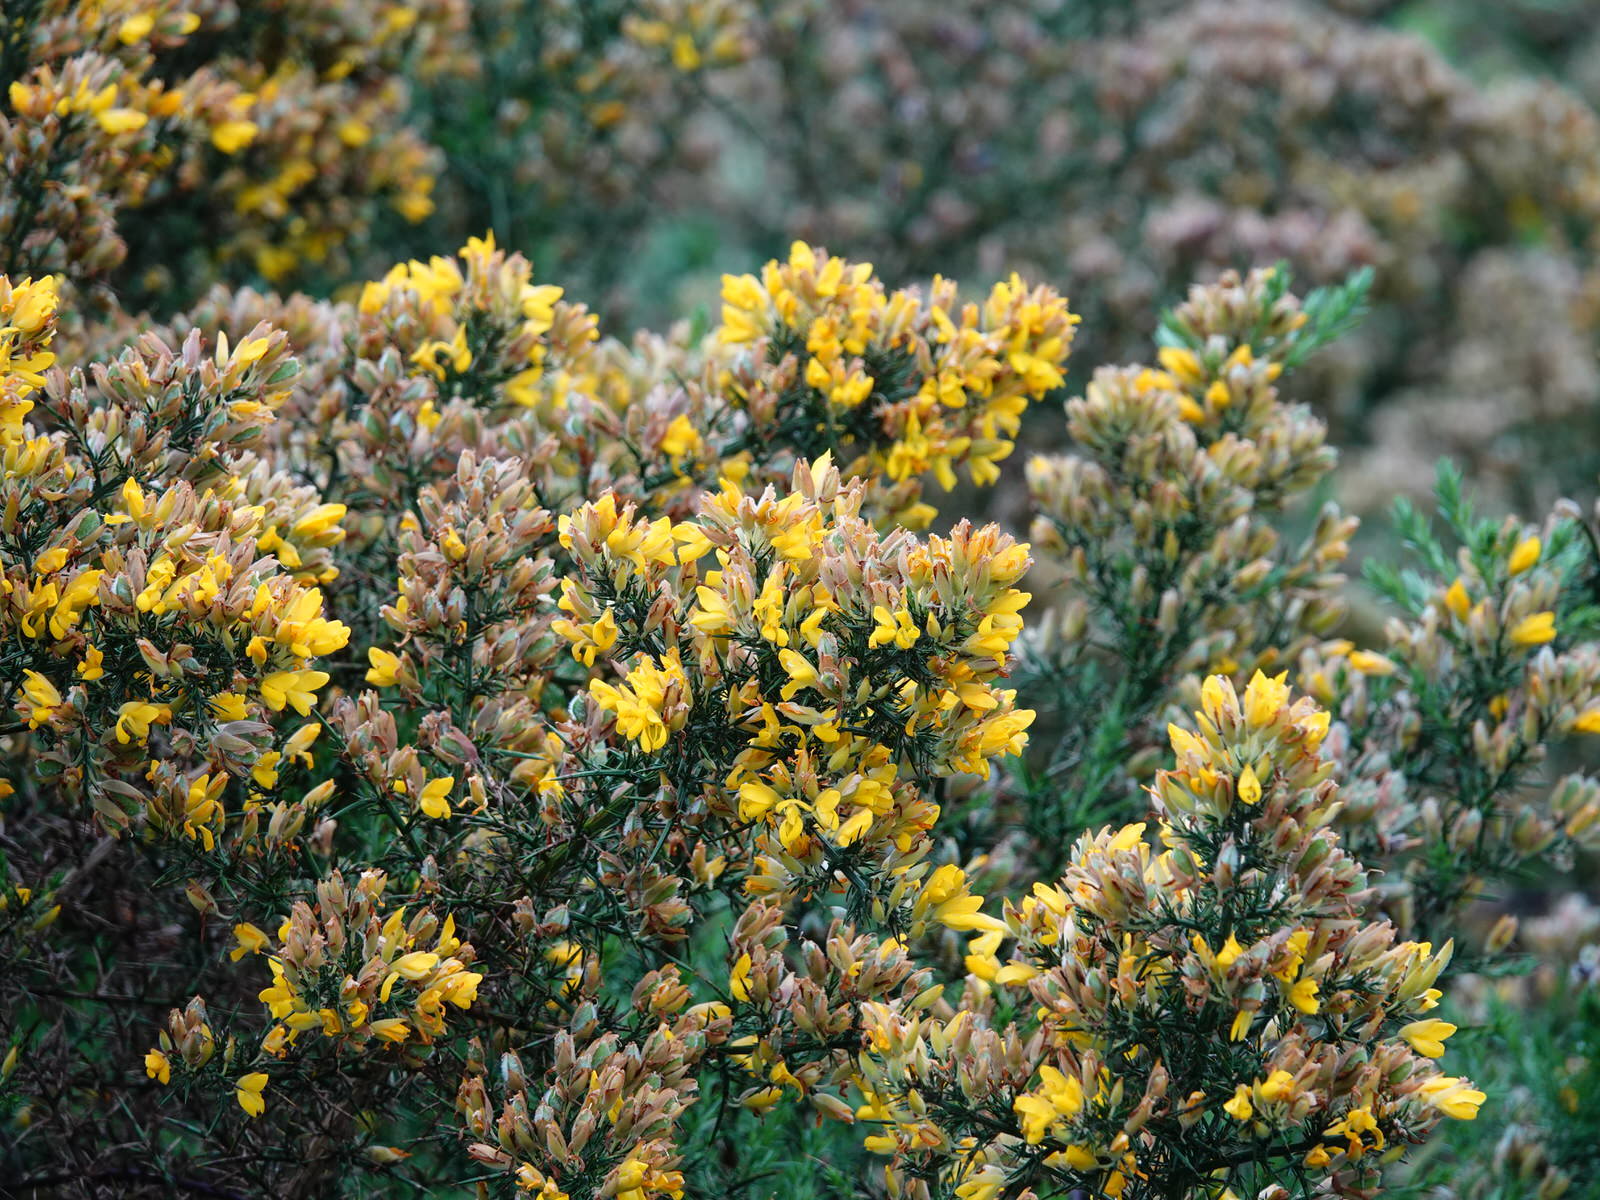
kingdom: Plantae
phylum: Tracheophyta
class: Magnoliopsida
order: Fabales
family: Fabaceae
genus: Ulex
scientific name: Ulex europaeus
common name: Common gorse
